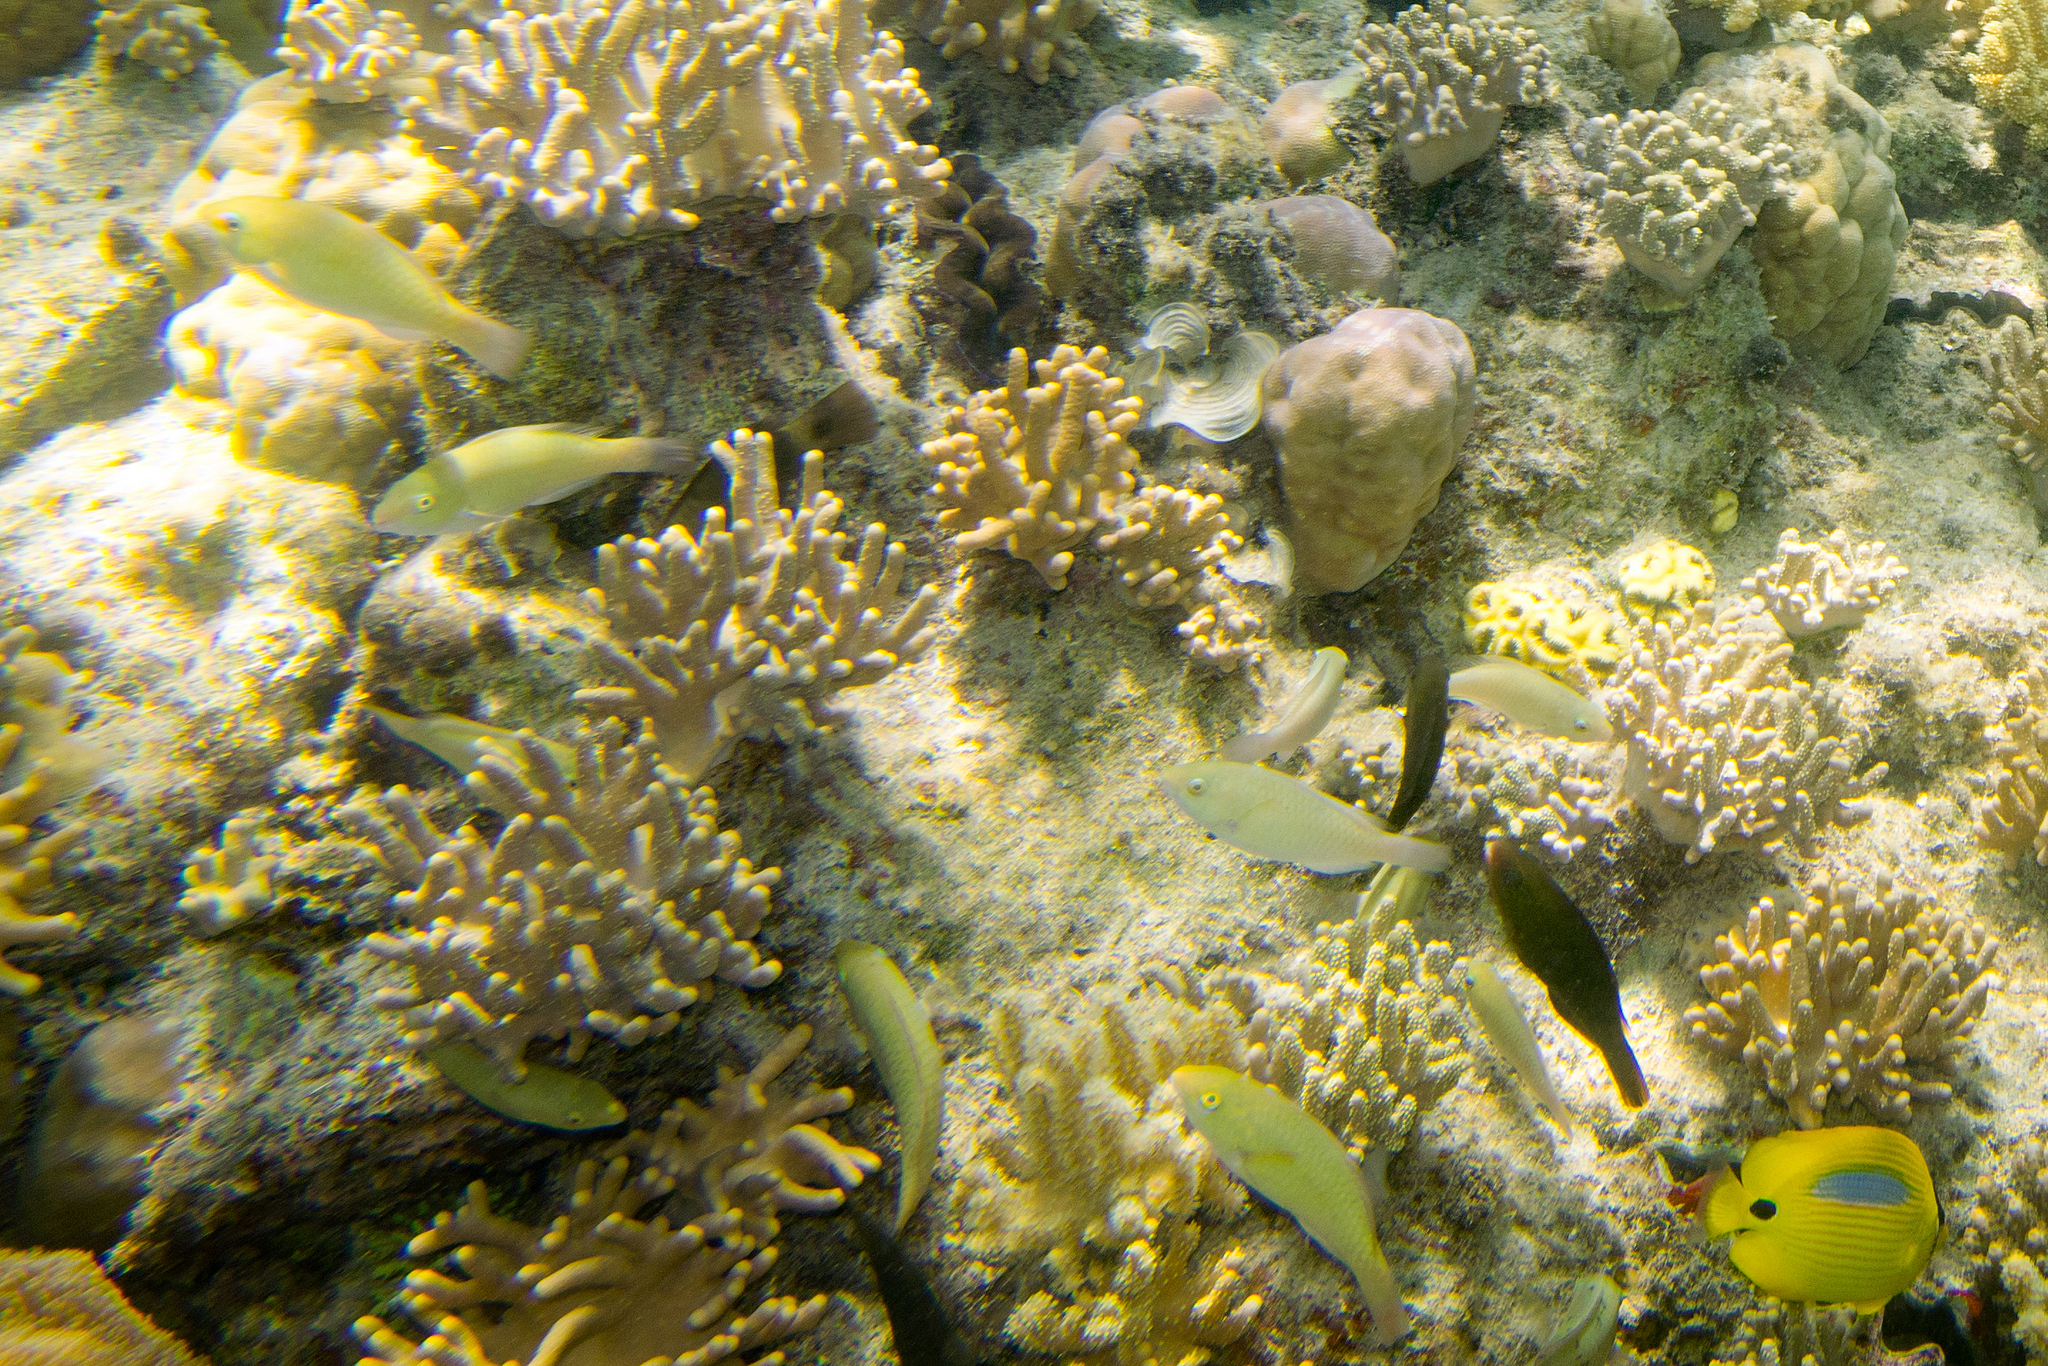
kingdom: Animalia
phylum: Chordata
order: Perciformes
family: Chaetodontidae
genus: Chaetodon
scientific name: Chaetodon plebeius
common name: Bluespot butterflyfish
